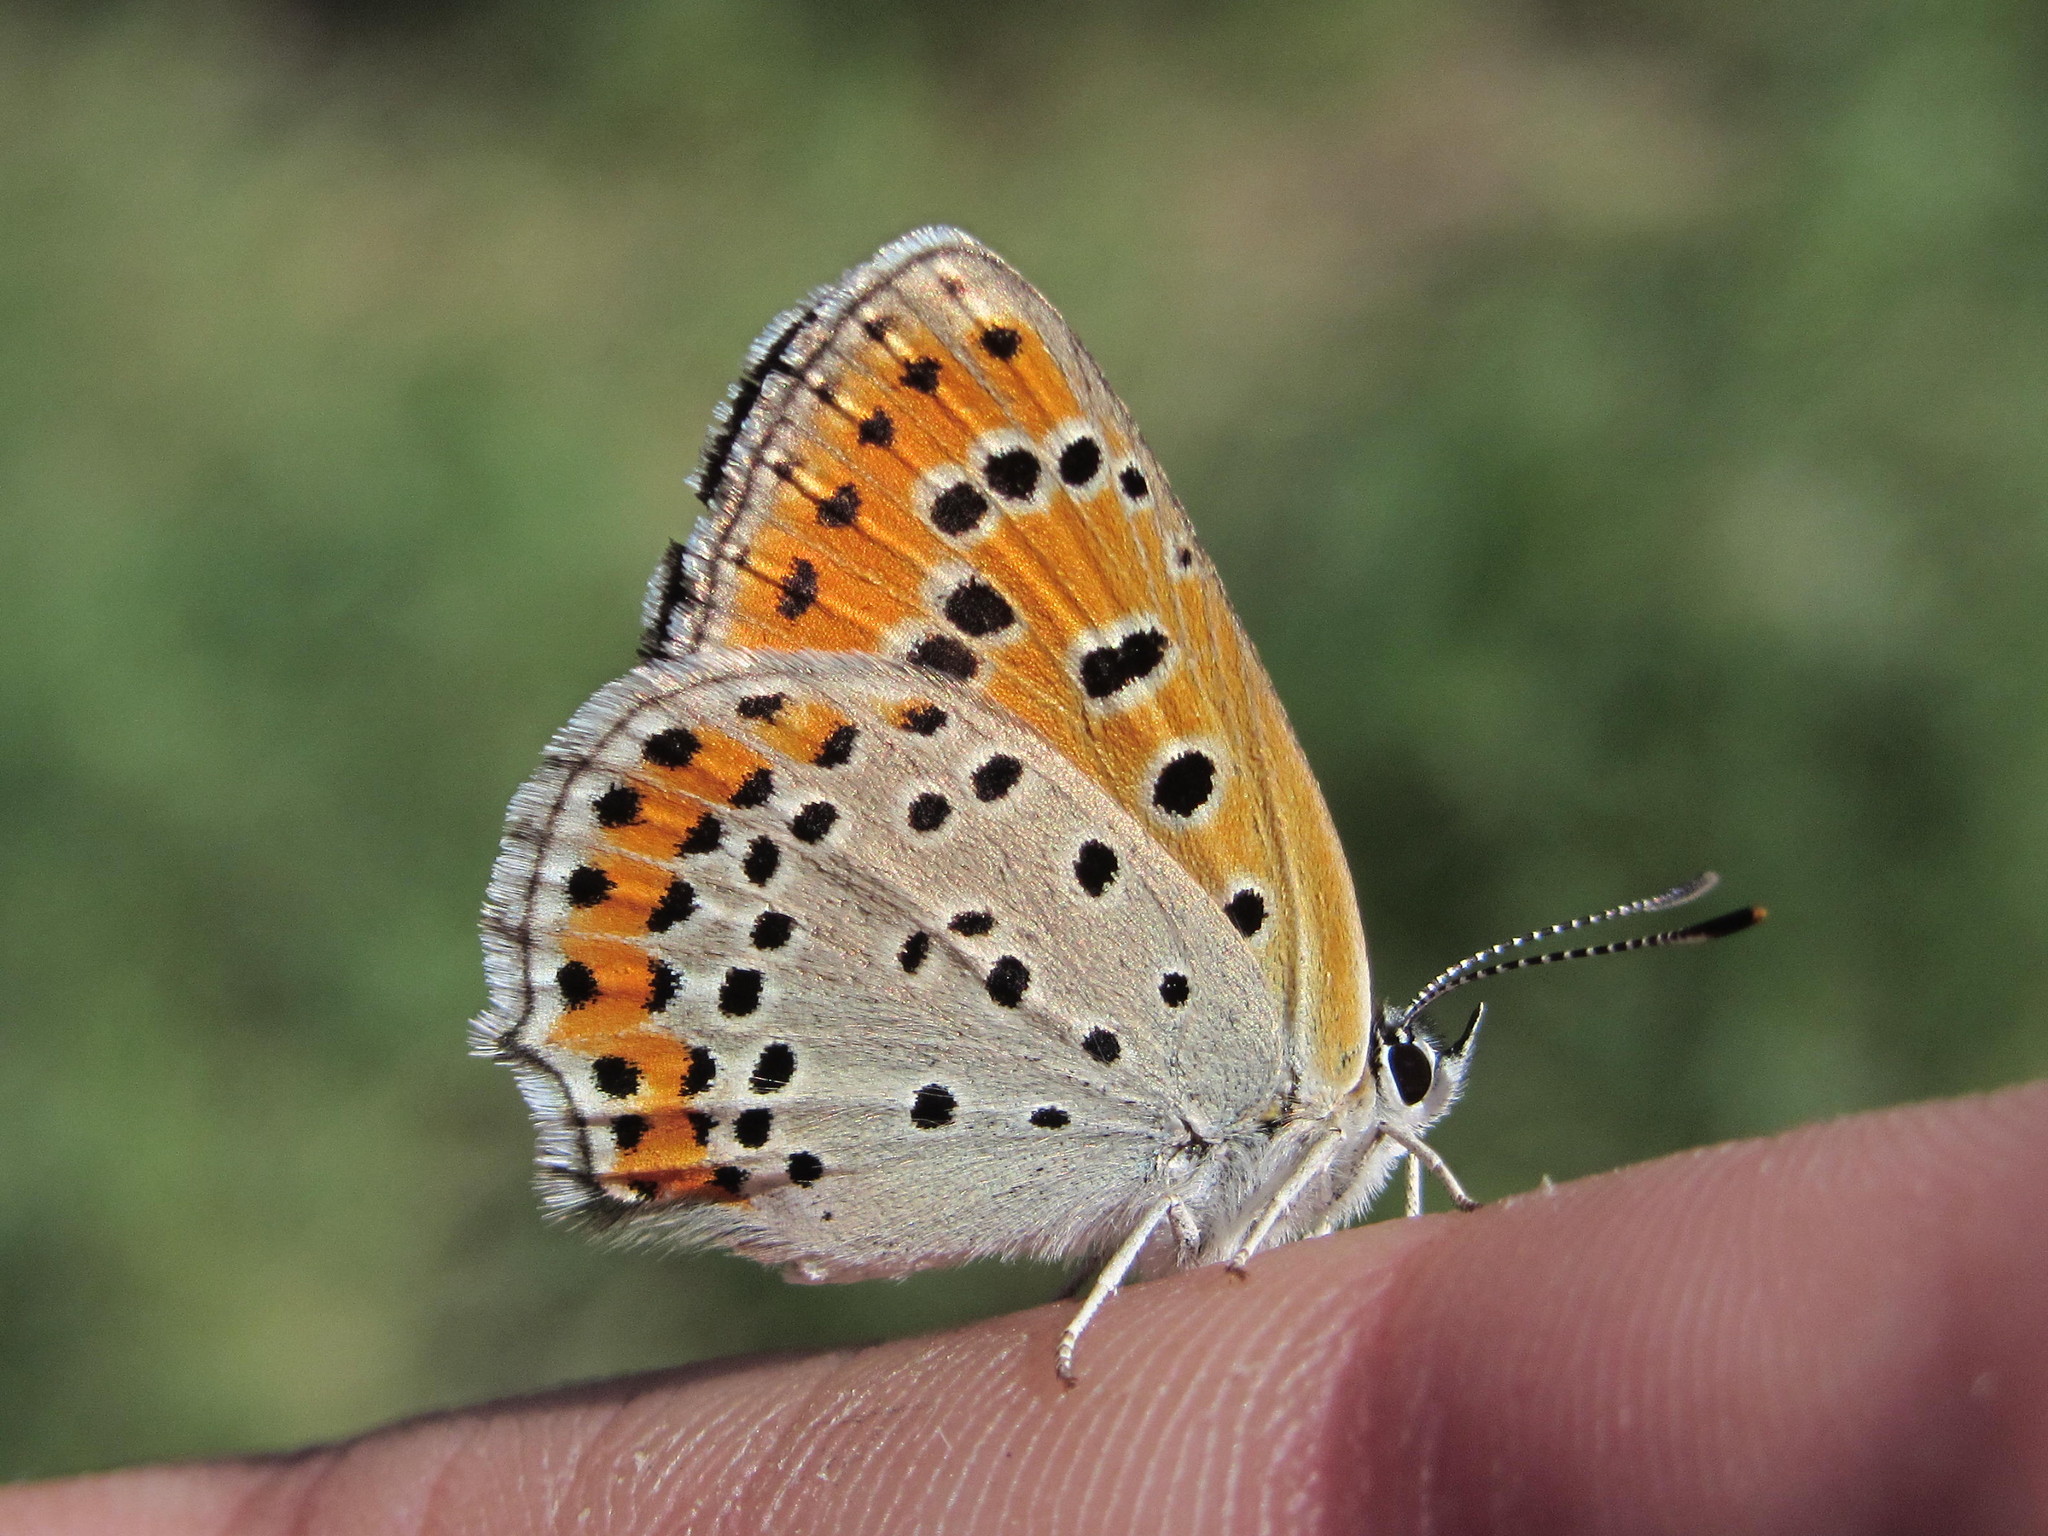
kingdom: Animalia
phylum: Arthropoda
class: Insecta
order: Lepidoptera
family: Lycaenidae
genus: Thersamonia
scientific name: Thersamonia thersamon
